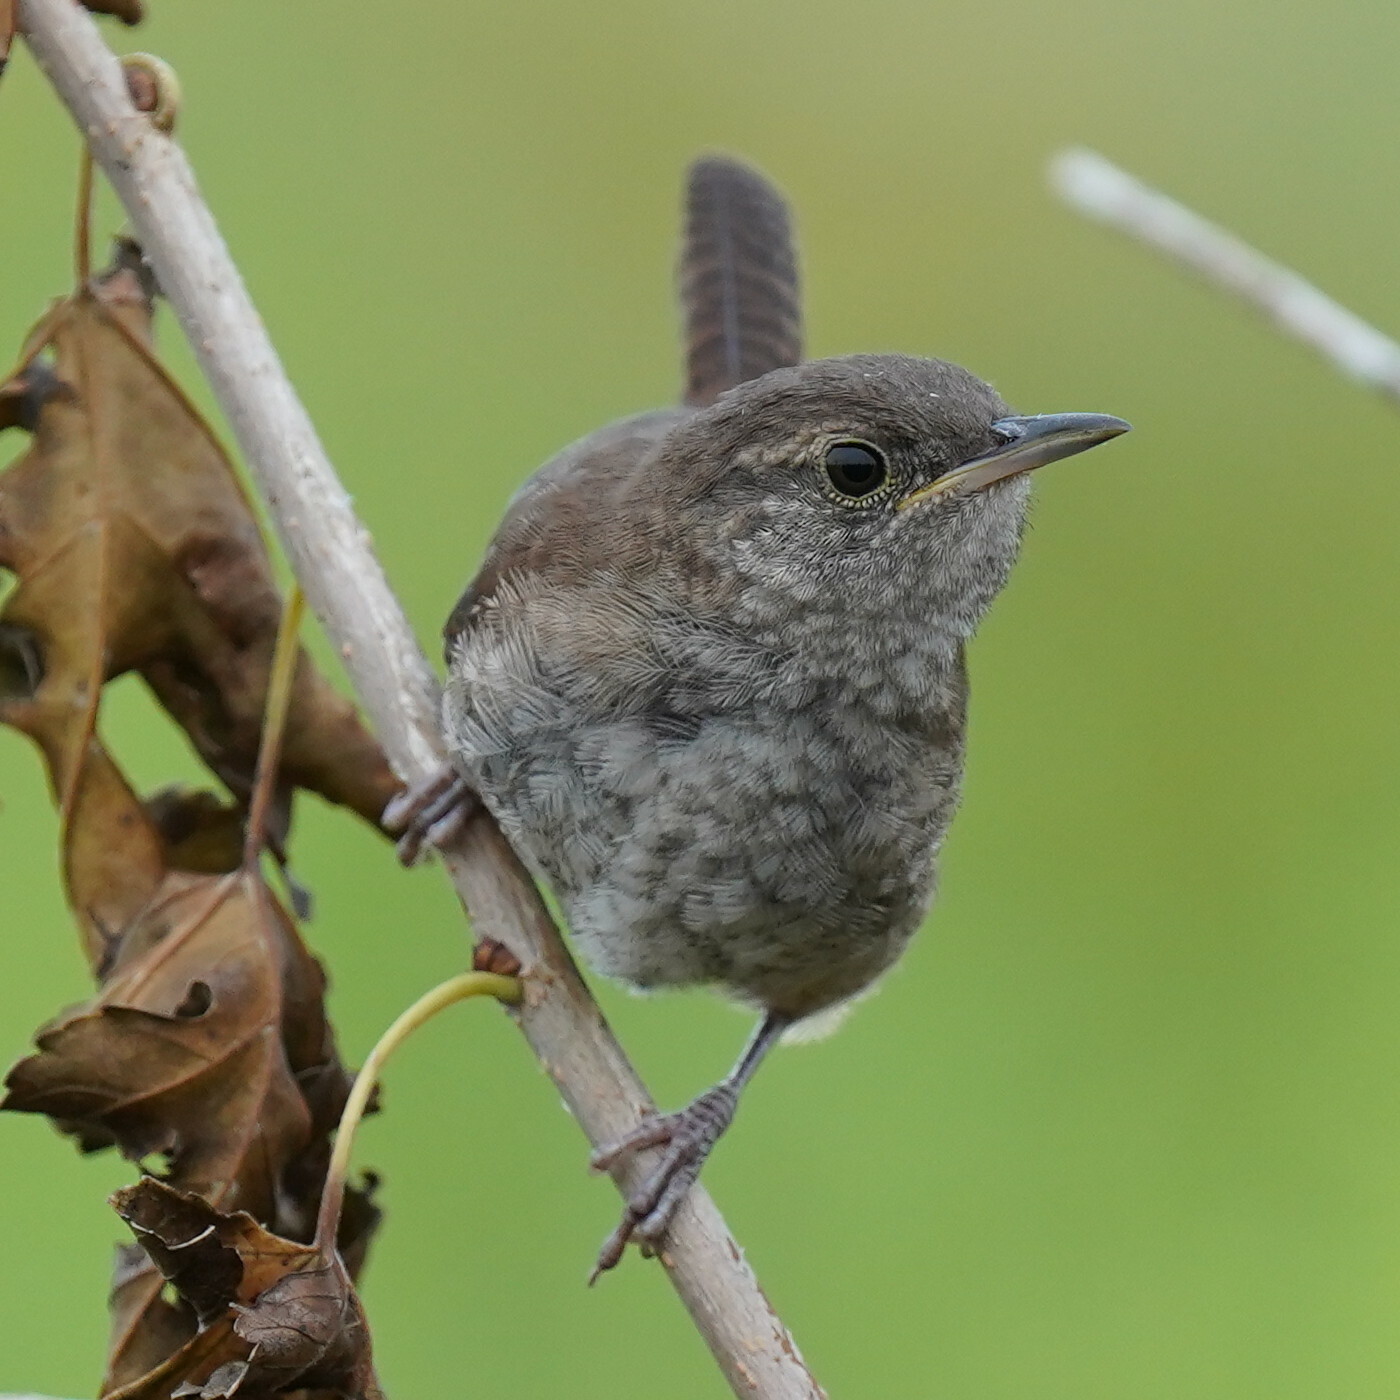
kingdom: Animalia
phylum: Chordata
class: Aves
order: Passeriformes
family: Troglodytidae
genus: Troglodytes
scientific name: Troglodytes aedon
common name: House wren
